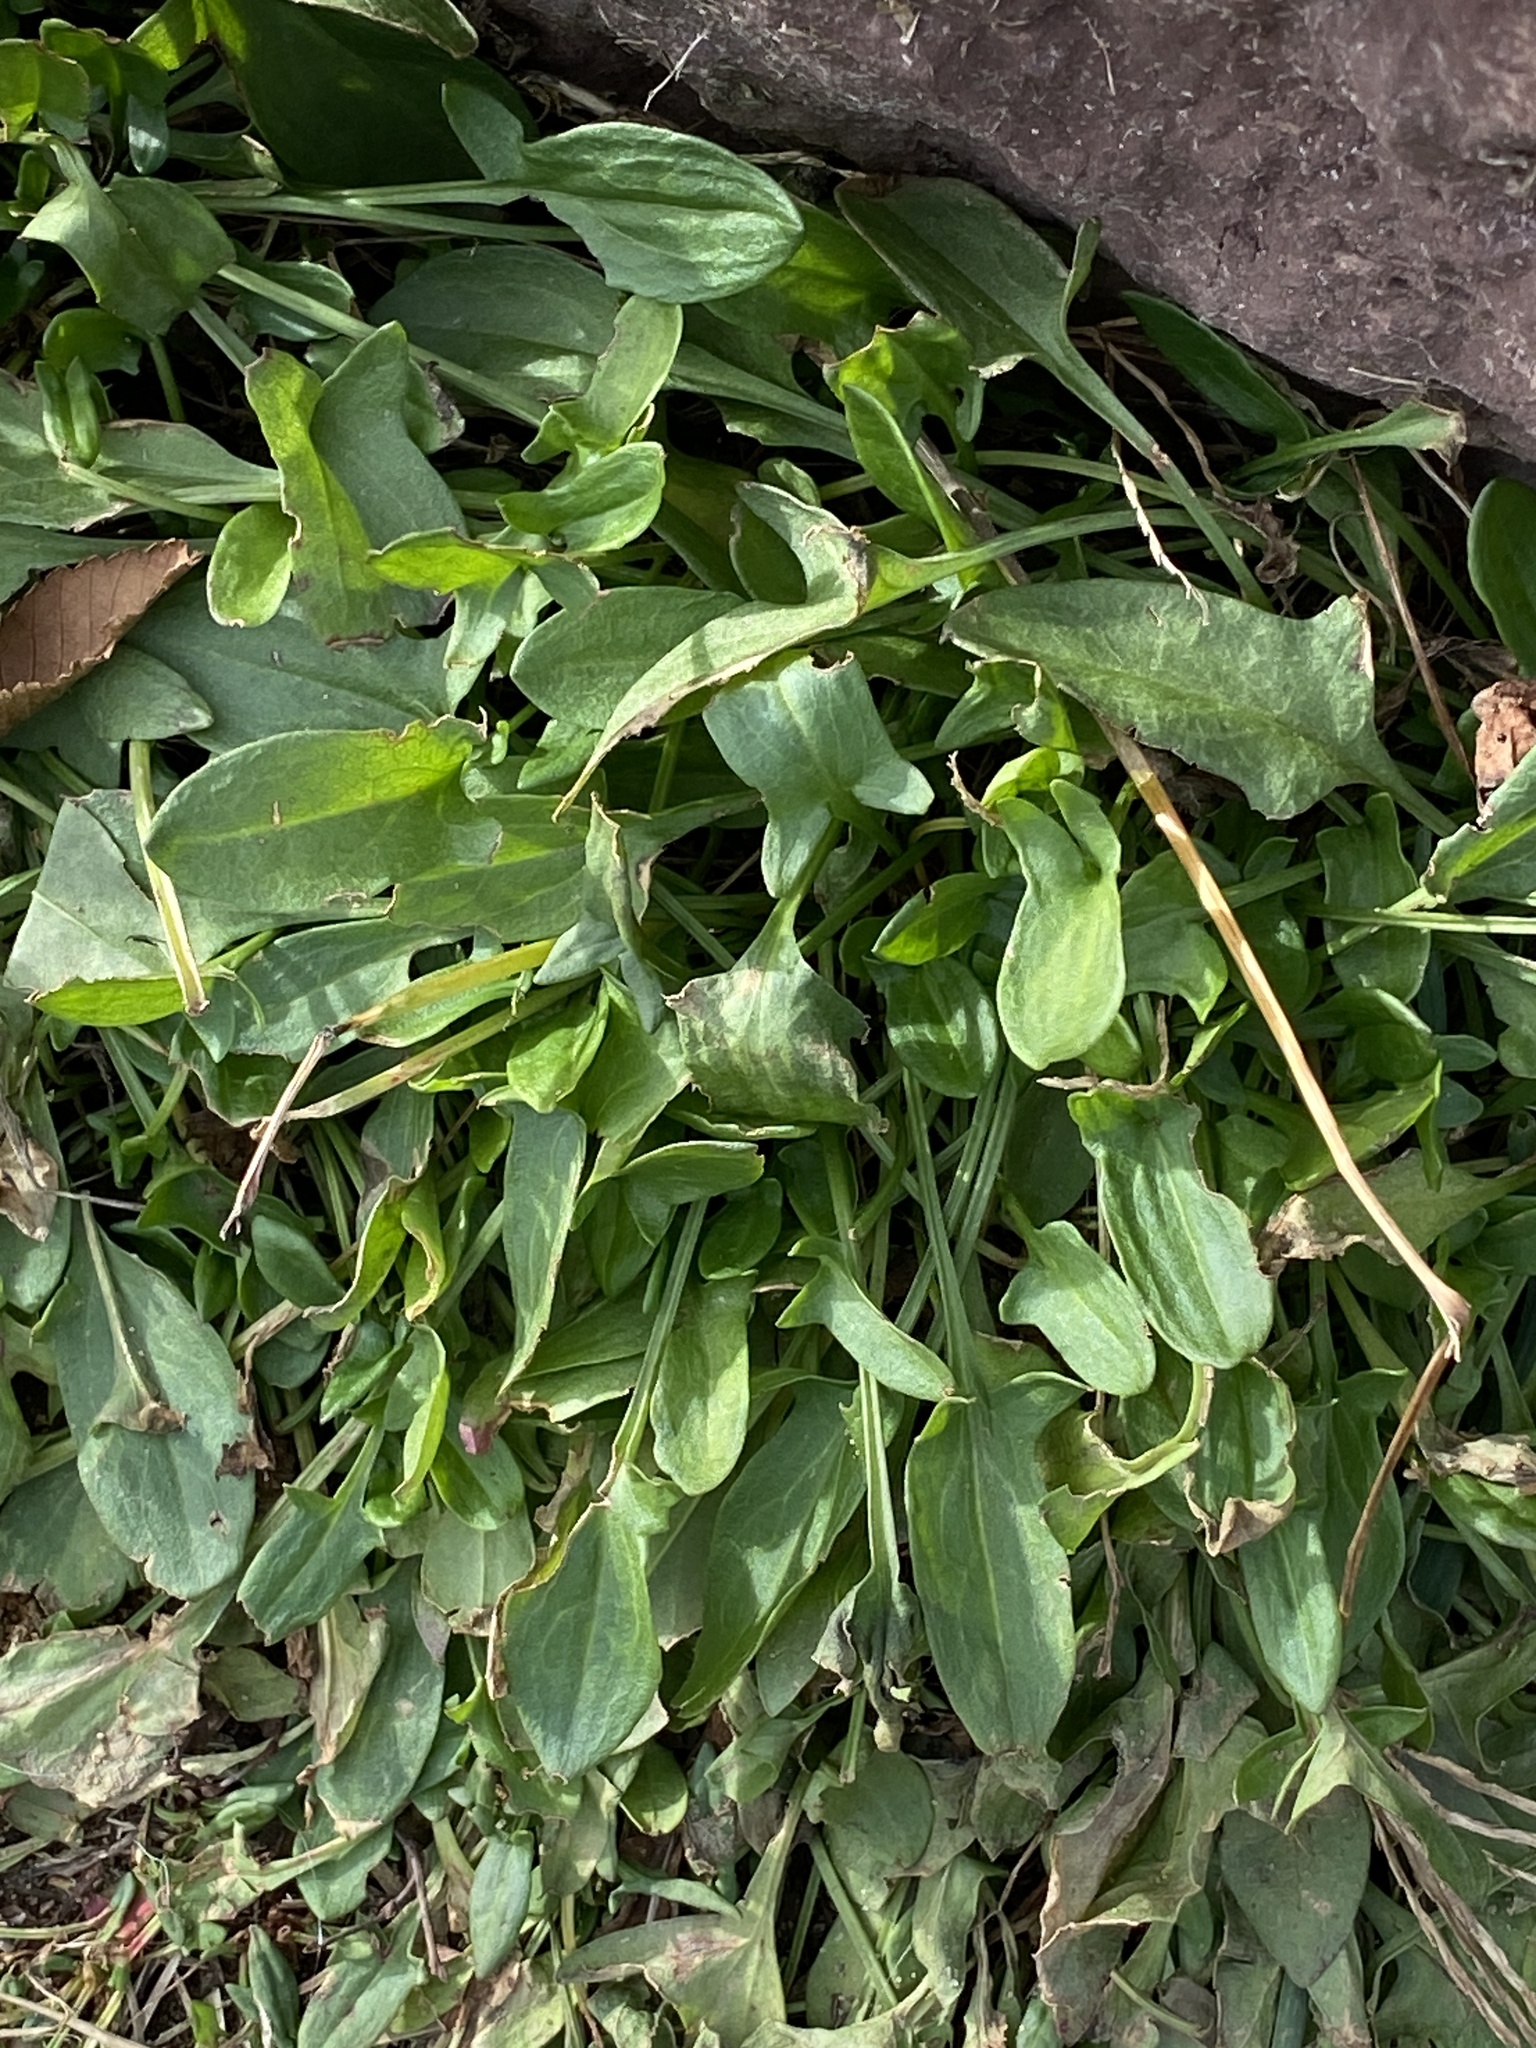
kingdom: Plantae
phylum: Tracheophyta
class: Magnoliopsida
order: Caryophyllales
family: Polygonaceae
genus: Rumex
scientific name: Rumex acetosella
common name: Common sheep sorrel
